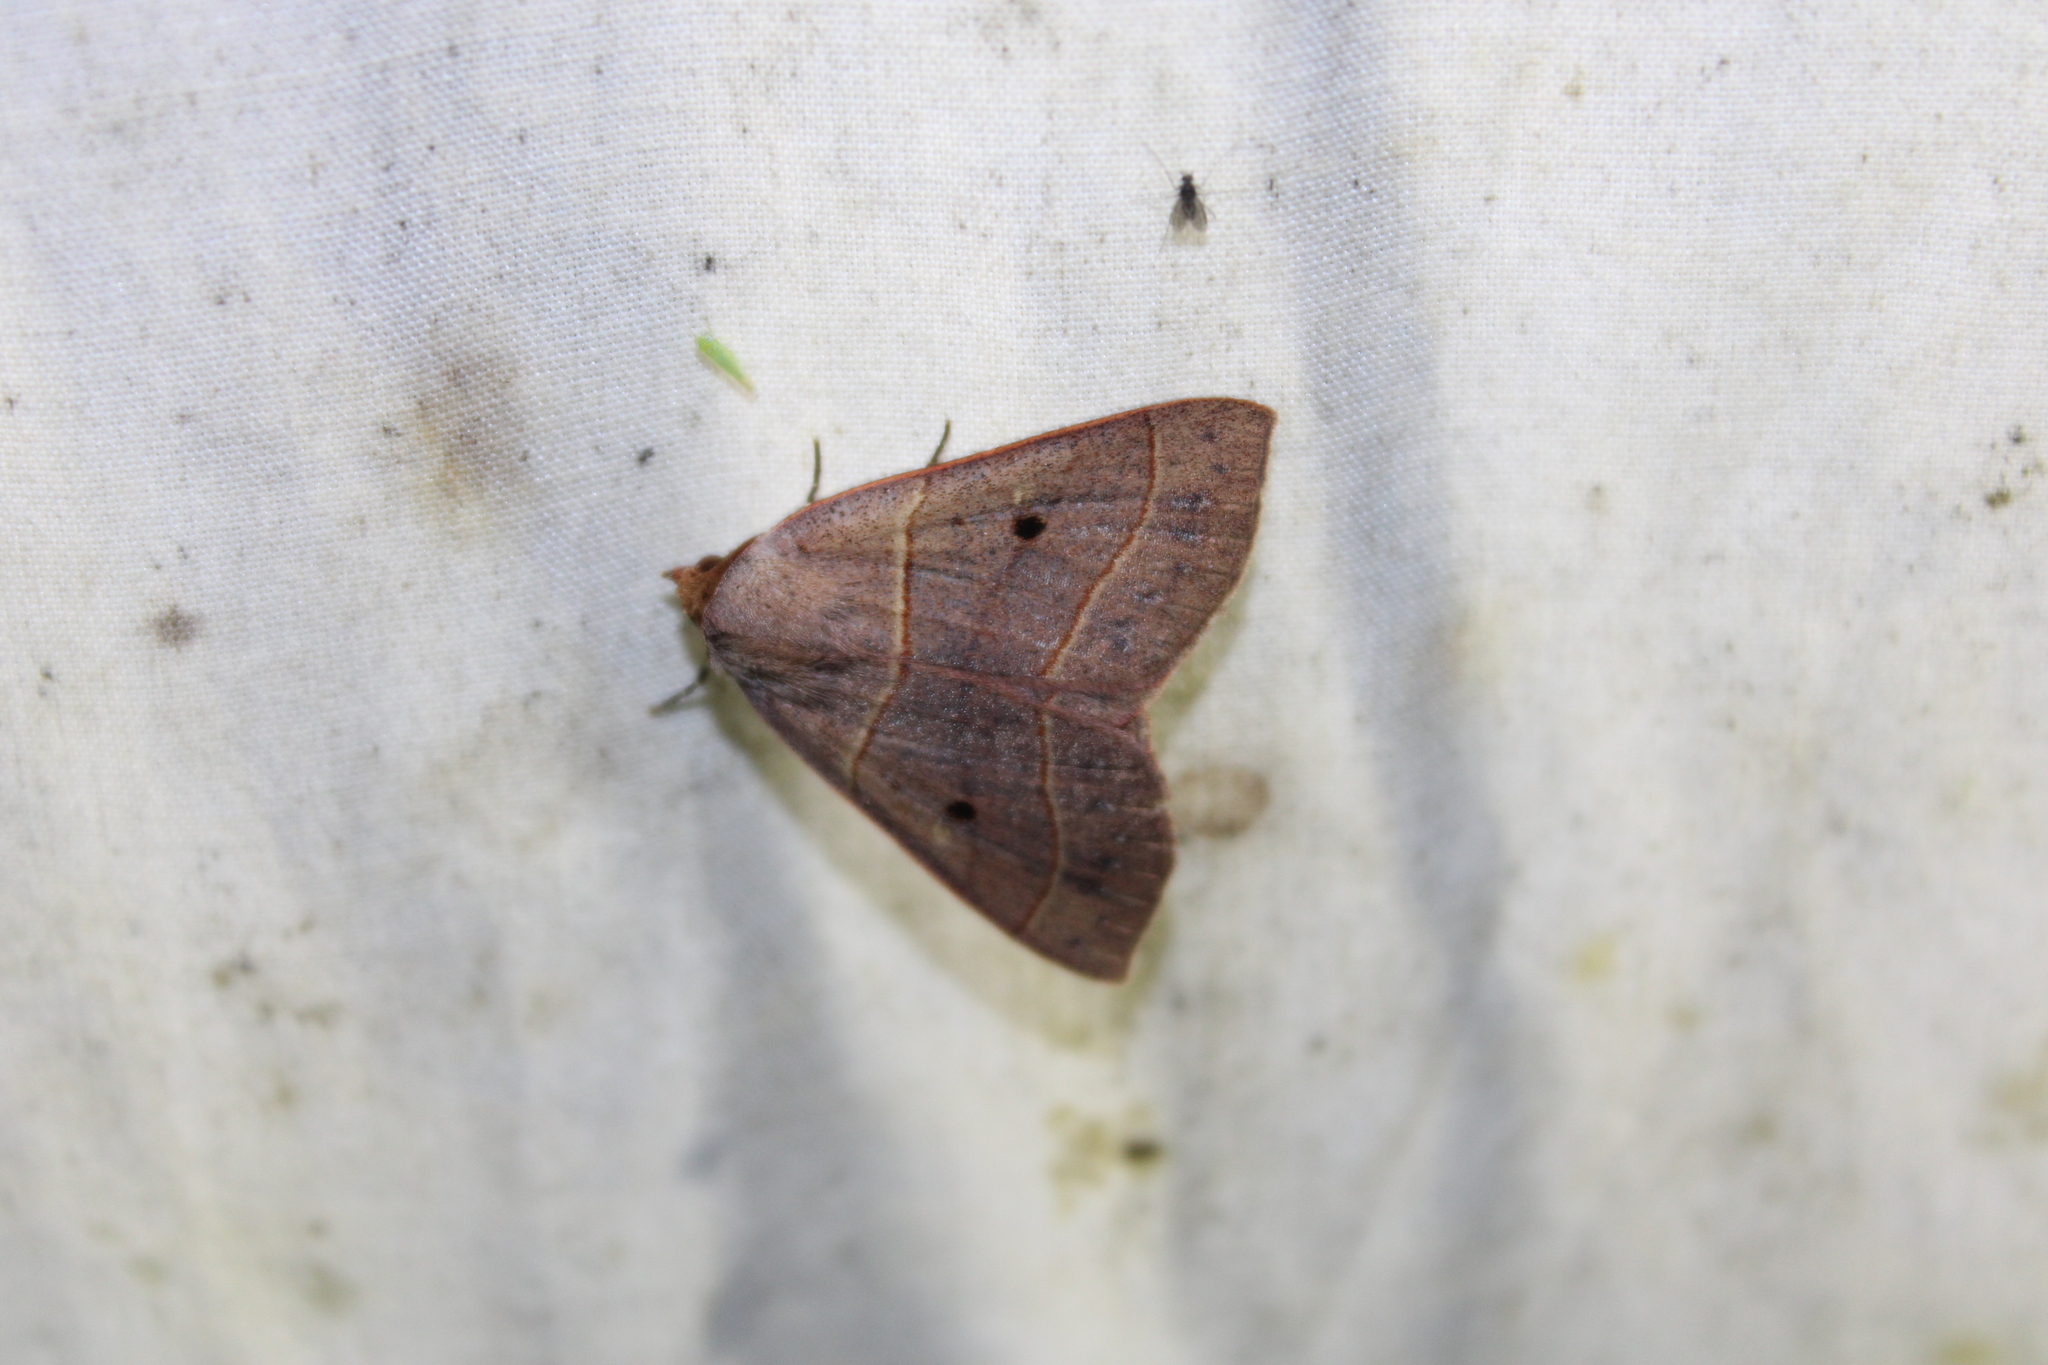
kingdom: Animalia
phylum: Arthropoda
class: Insecta
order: Lepidoptera
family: Erebidae
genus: Panopoda
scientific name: Panopoda rufimargo
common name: Red-lined panopoda moth
